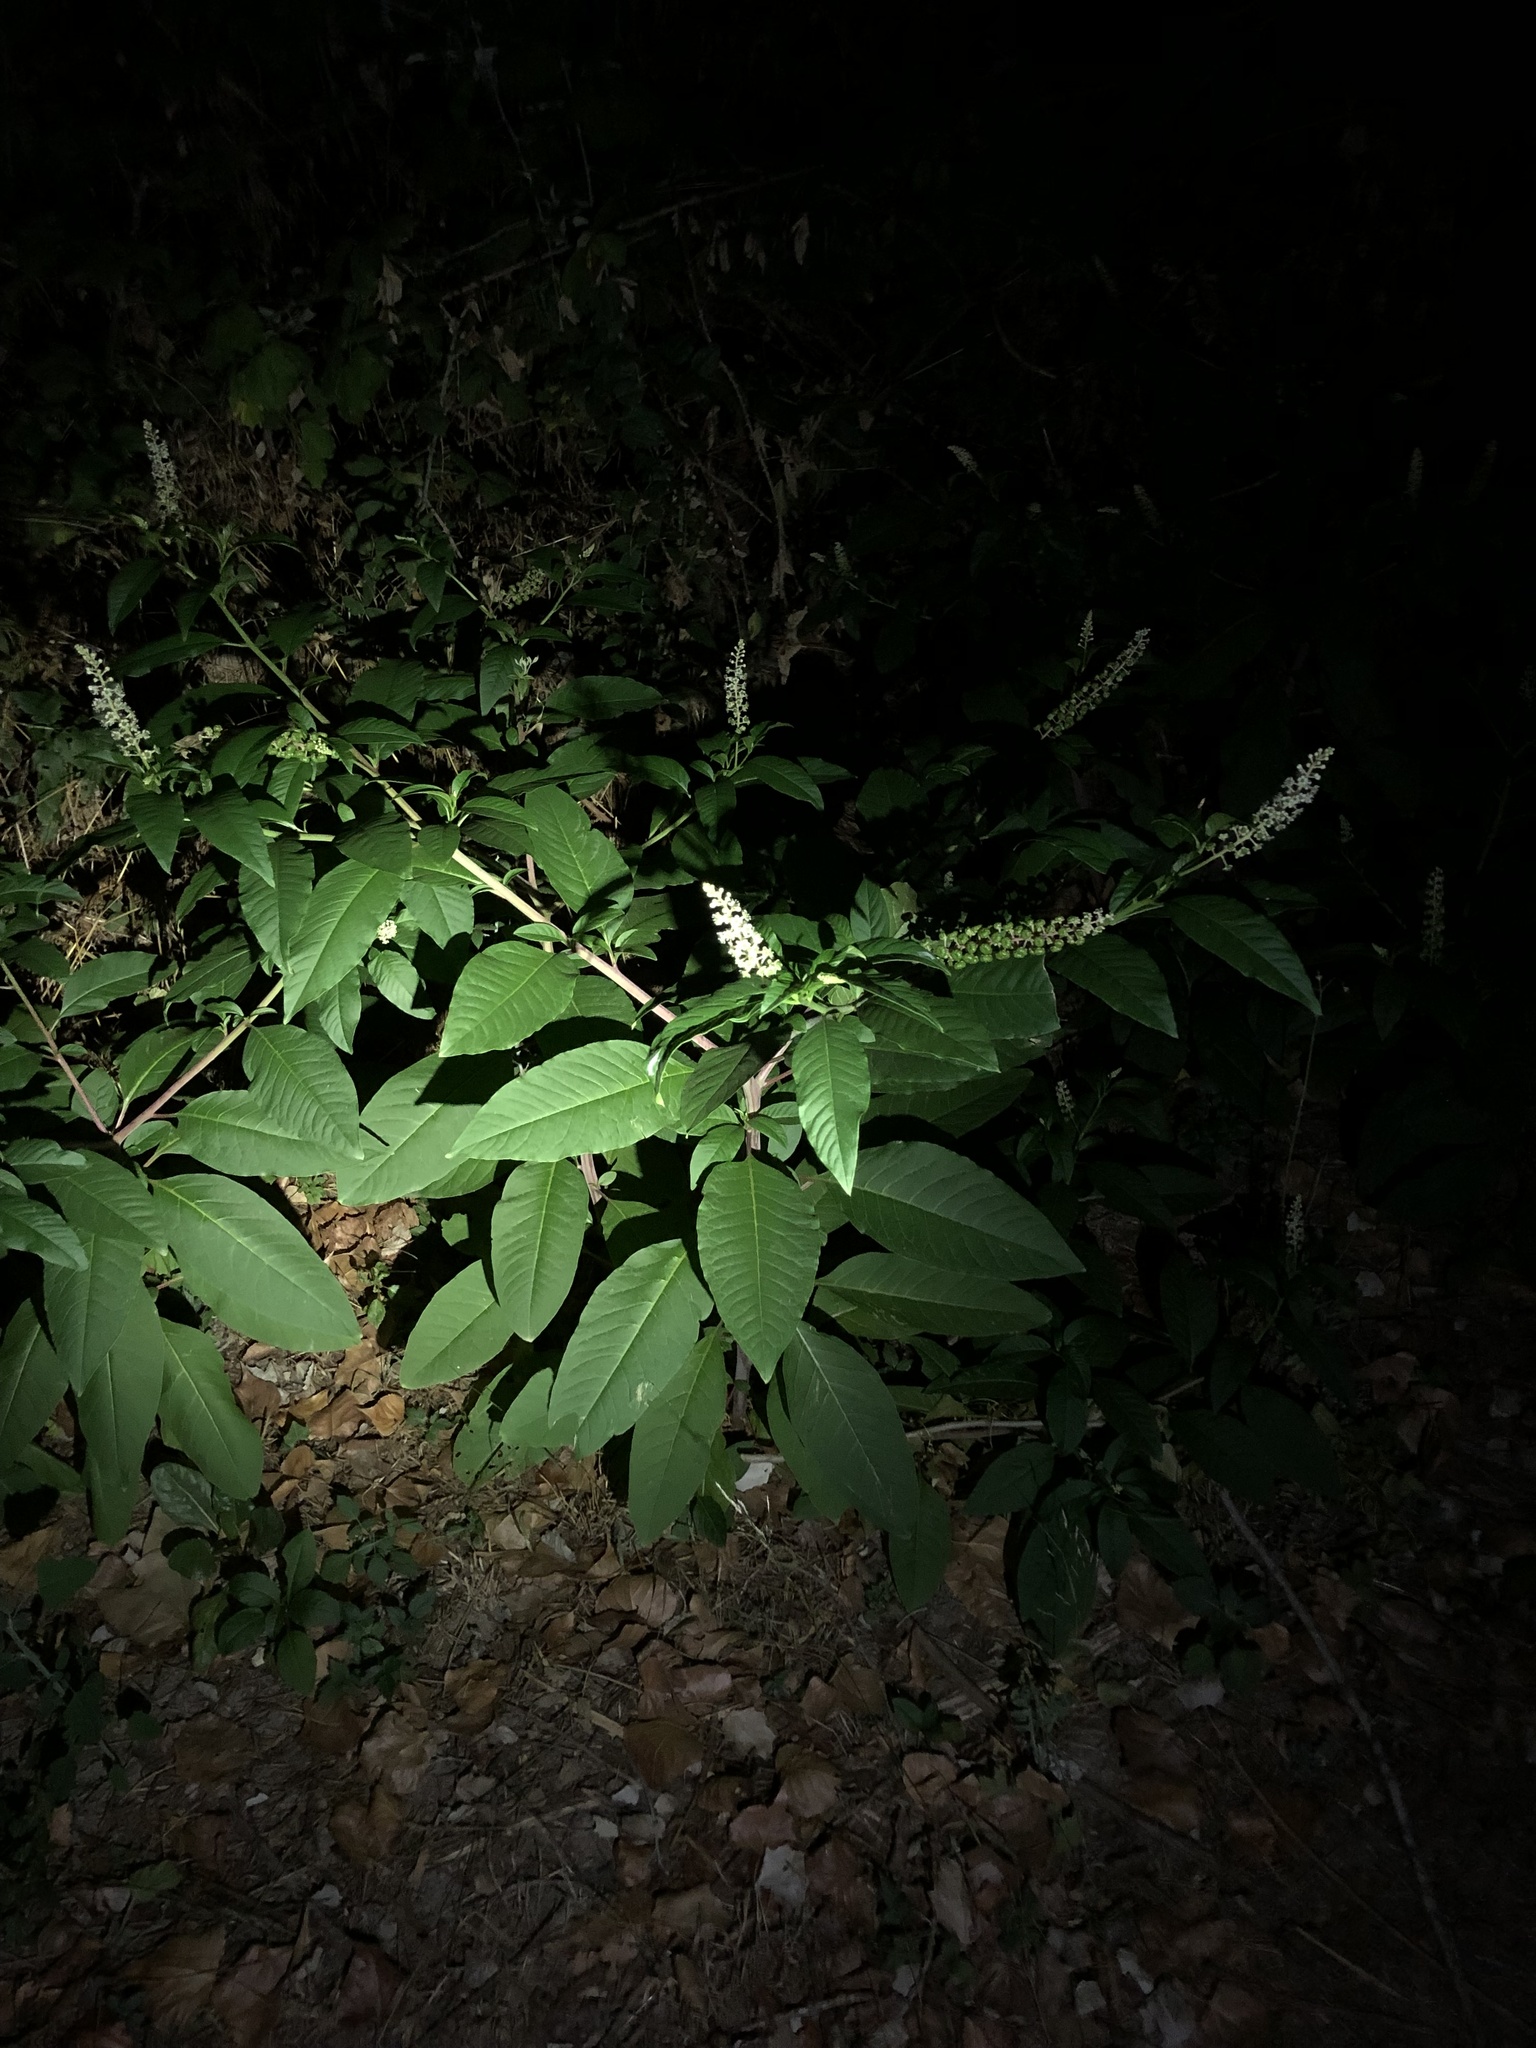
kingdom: Plantae
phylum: Tracheophyta
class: Magnoliopsida
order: Caryophyllales
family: Phytolaccaceae
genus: Phytolacca
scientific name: Phytolacca americana
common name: American pokeweed
